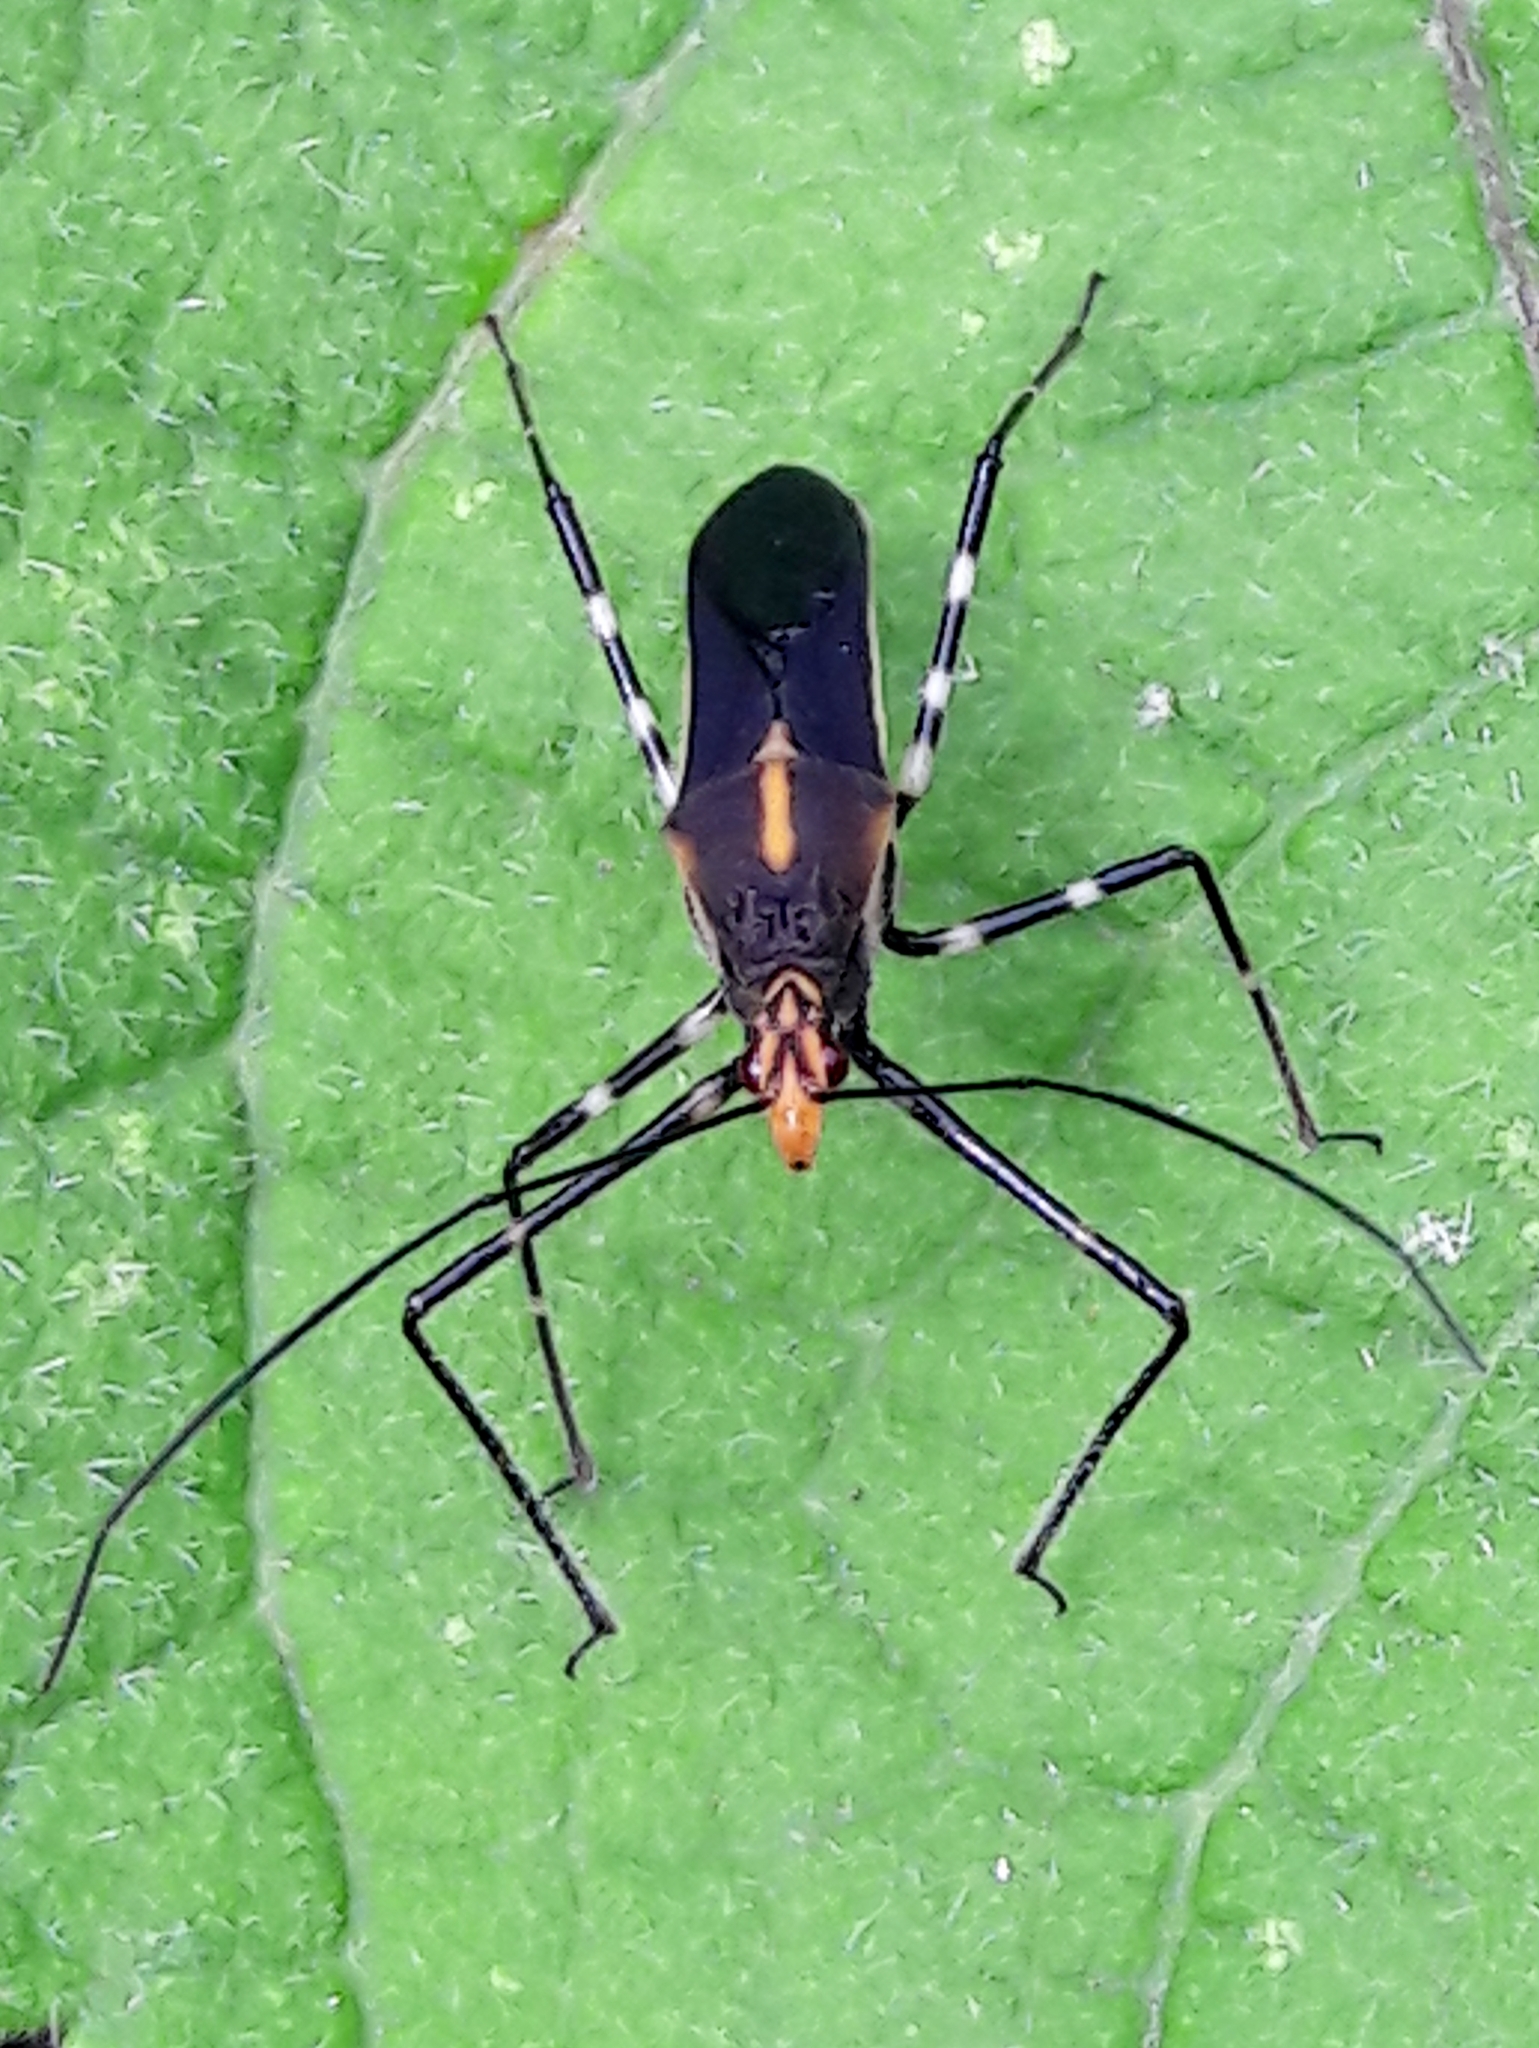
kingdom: Animalia
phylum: Arthropoda
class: Insecta
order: Hemiptera
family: Reduviidae
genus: Zelus
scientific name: Zelus laticornis
